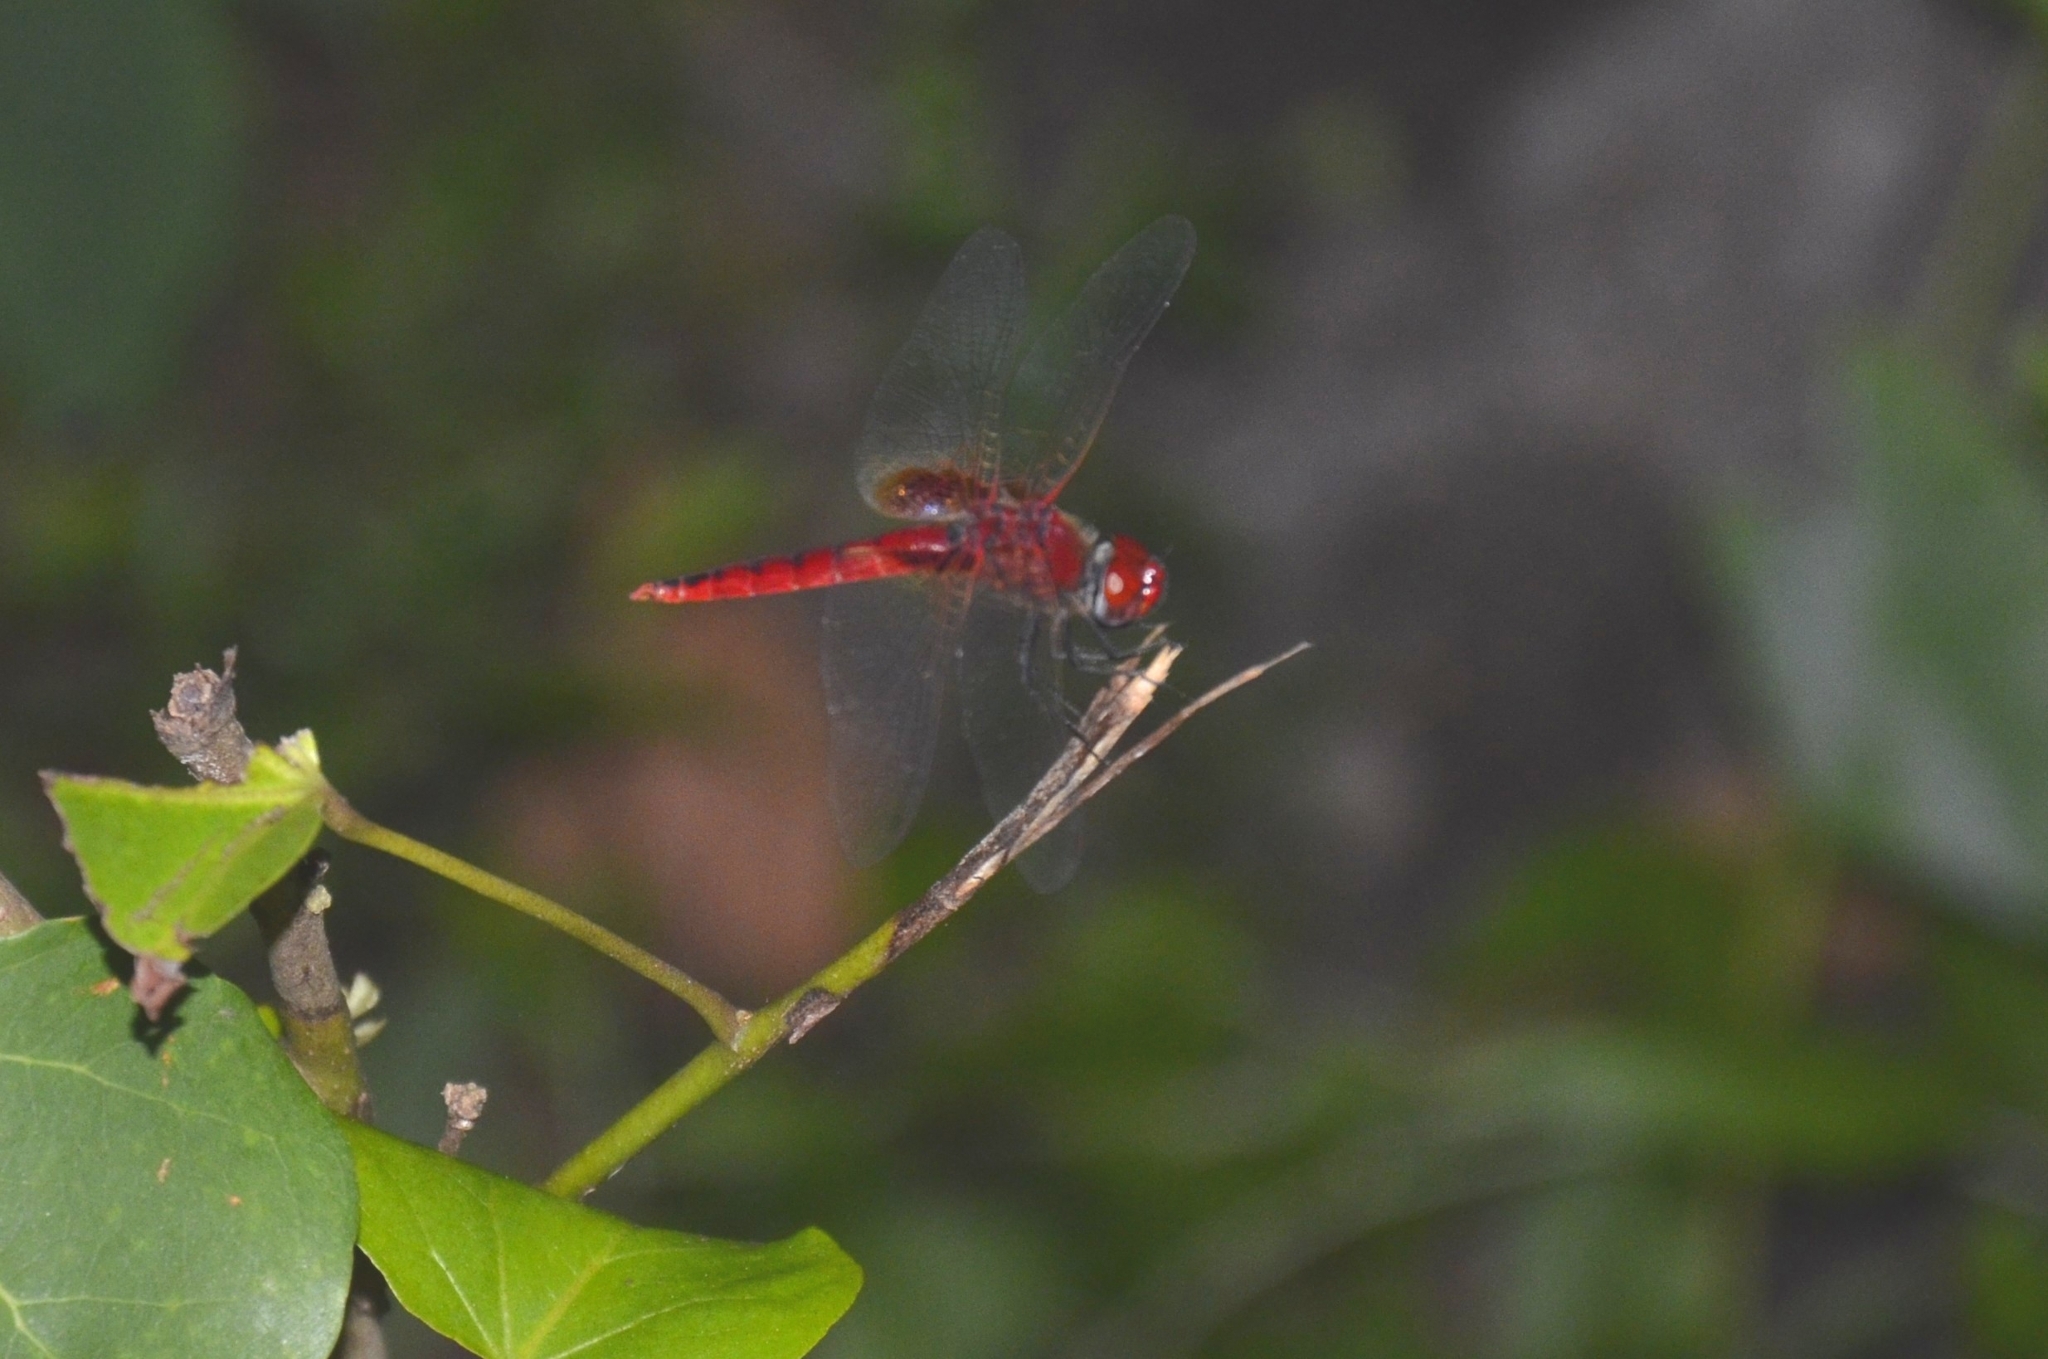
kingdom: Animalia
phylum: Arthropoda
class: Insecta
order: Odonata
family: Libellulidae
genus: Urothemis
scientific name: Urothemis signata
